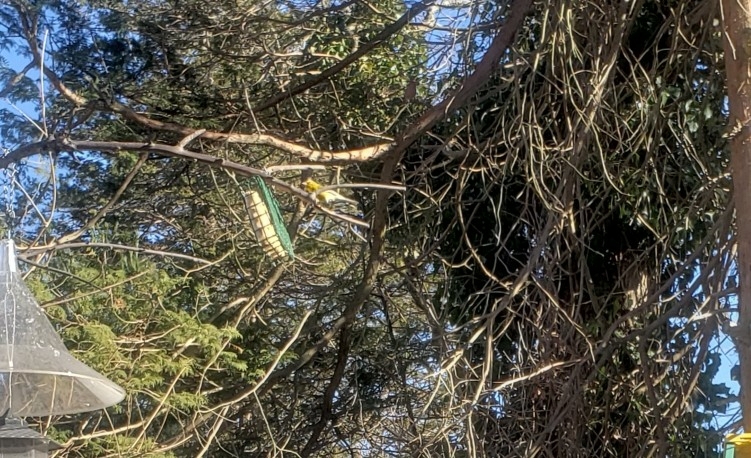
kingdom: Animalia
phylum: Chordata
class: Aves
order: Passeriformes
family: Parulidae
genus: Setophaga
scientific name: Setophaga pinus
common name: Pine warbler
